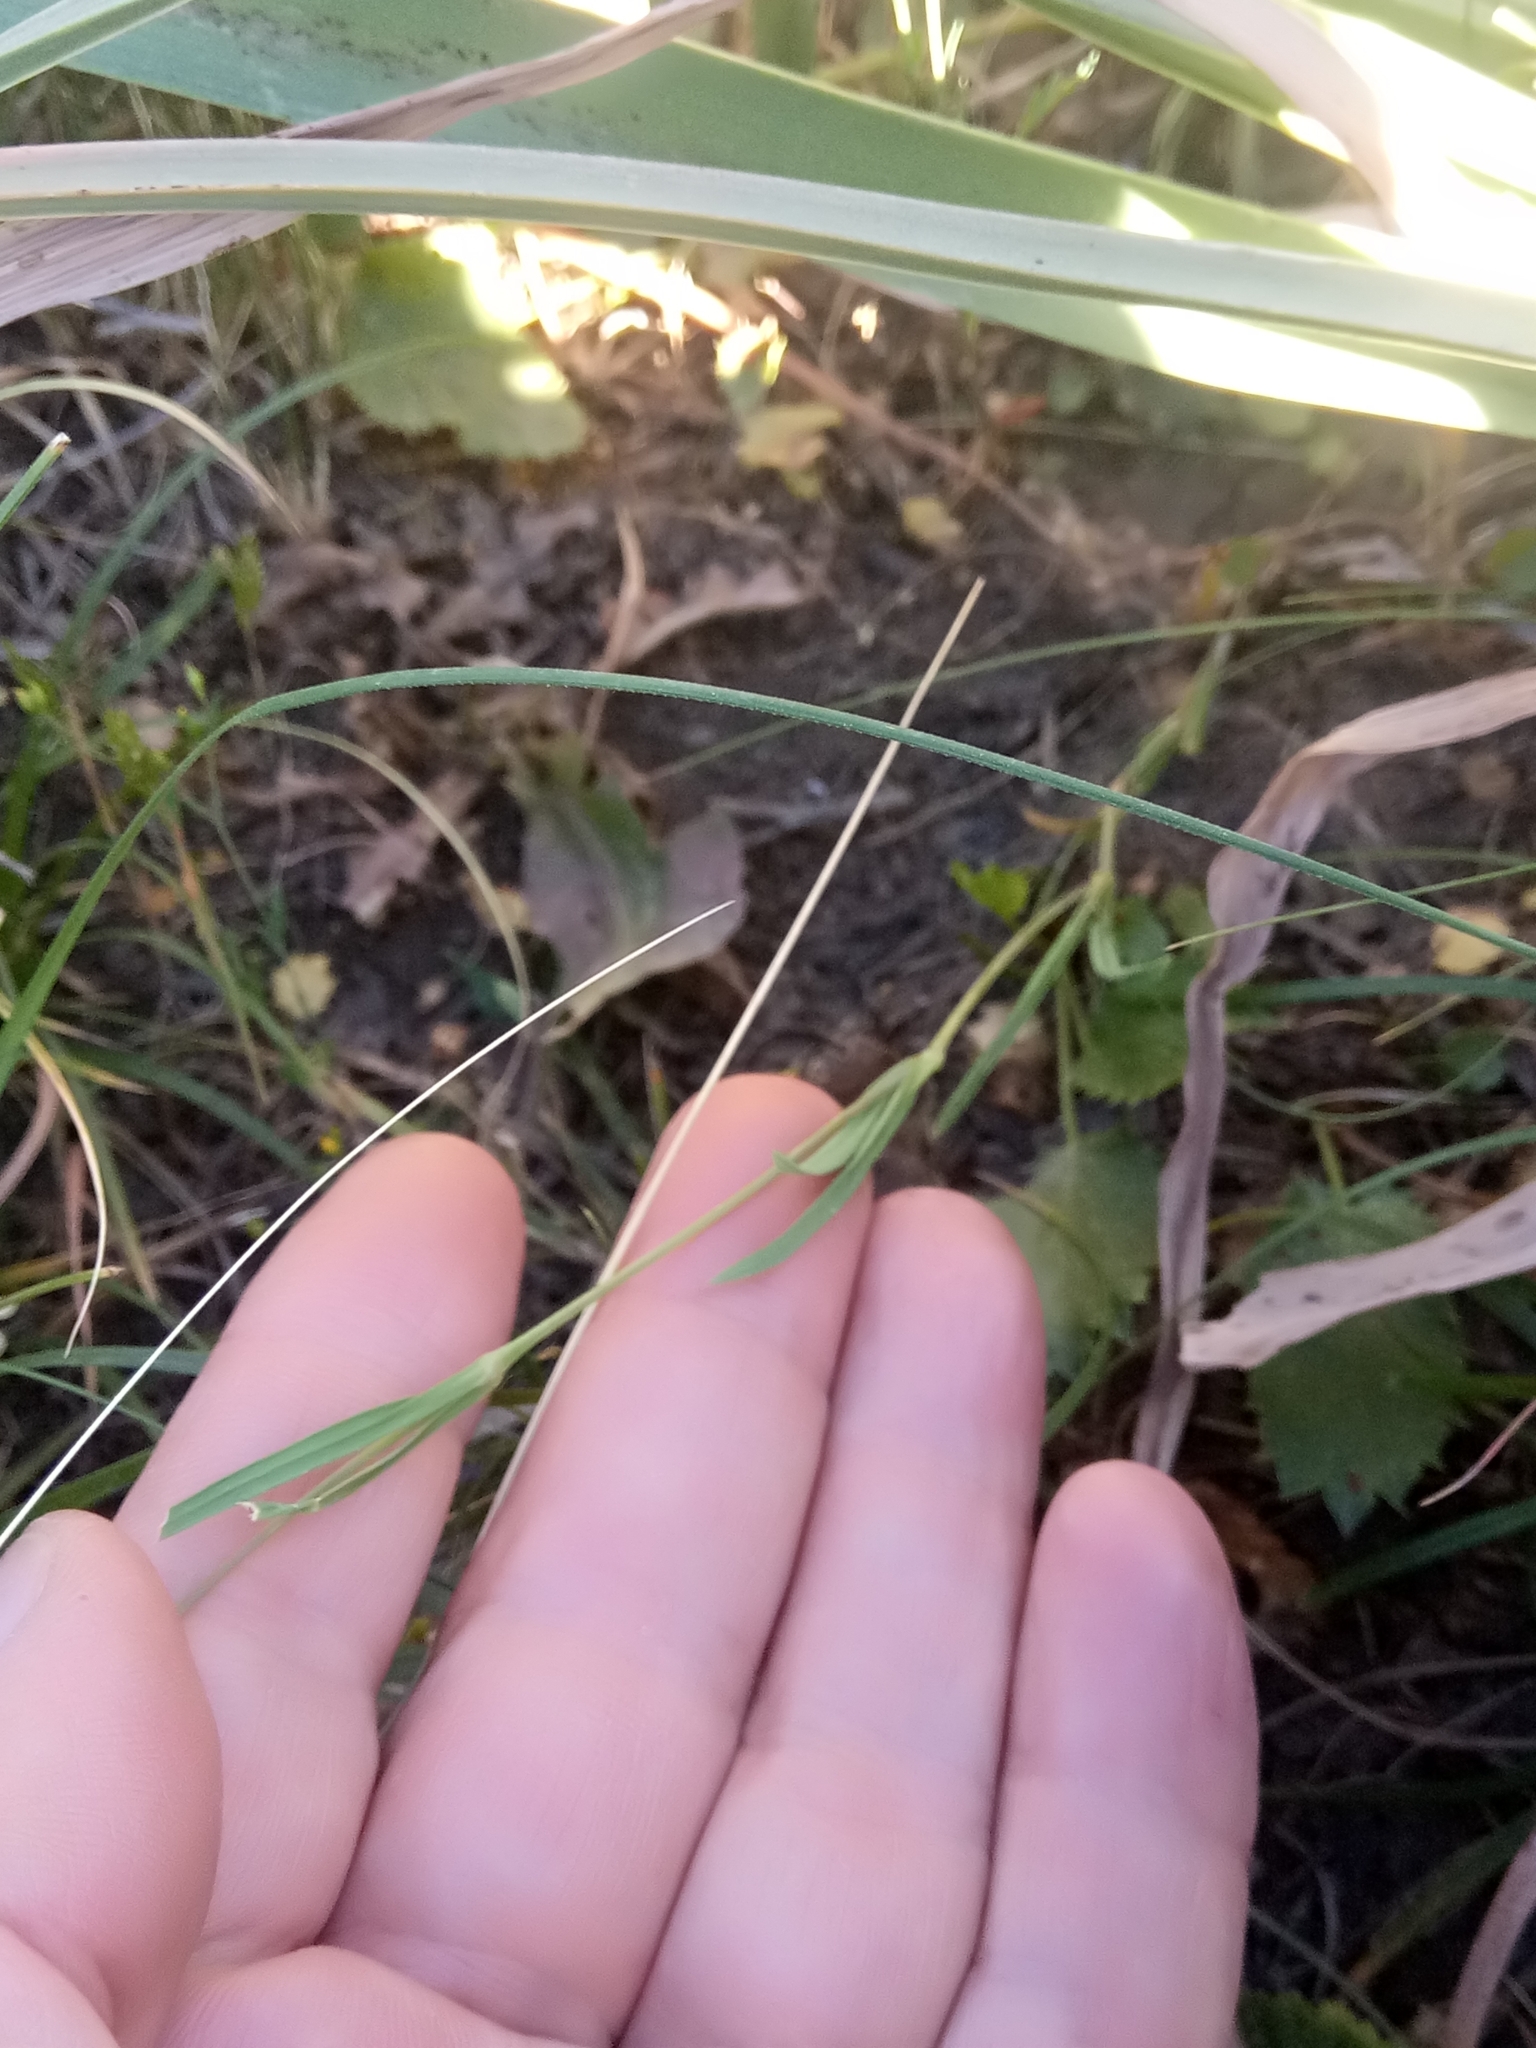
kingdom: Plantae
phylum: Tracheophyta
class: Magnoliopsida
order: Caryophyllales
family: Caryophyllaceae
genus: Eudianthe
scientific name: Eudianthe coeli-rosa
